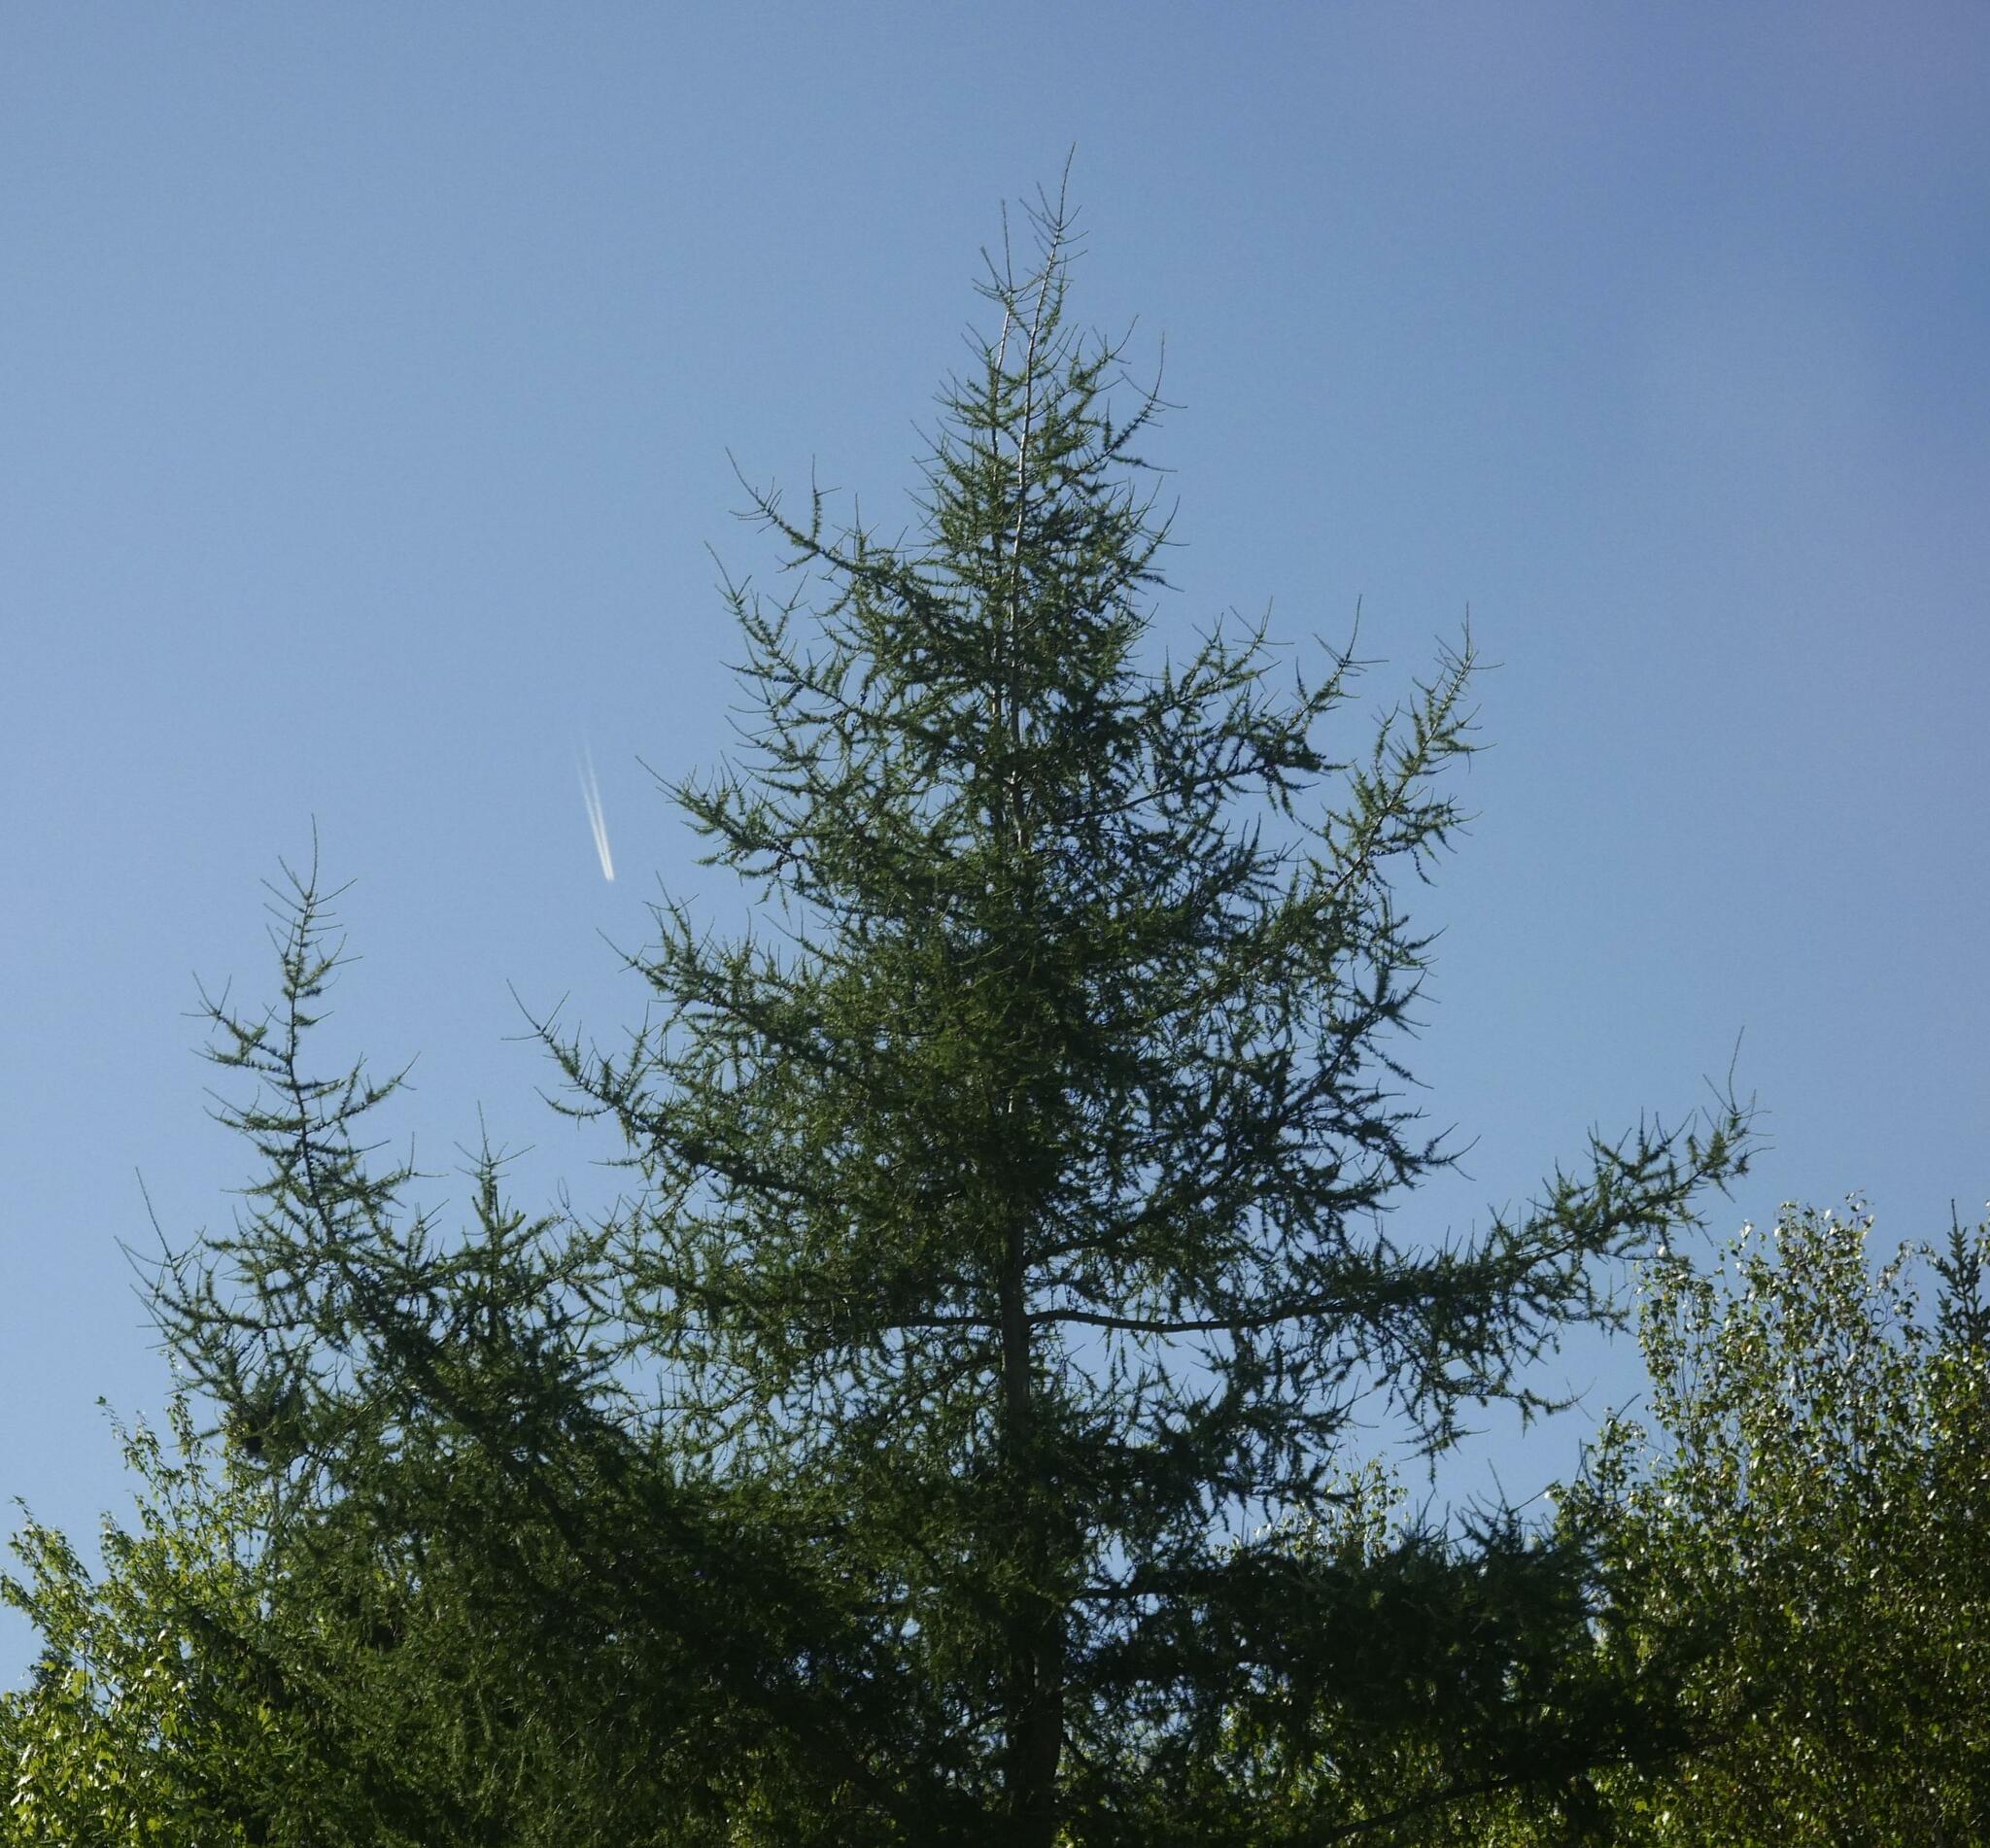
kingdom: Plantae
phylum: Tracheophyta
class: Pinopsida
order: Pinales
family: Pinaceae
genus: Larix
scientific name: Larix laricina
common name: American larch
